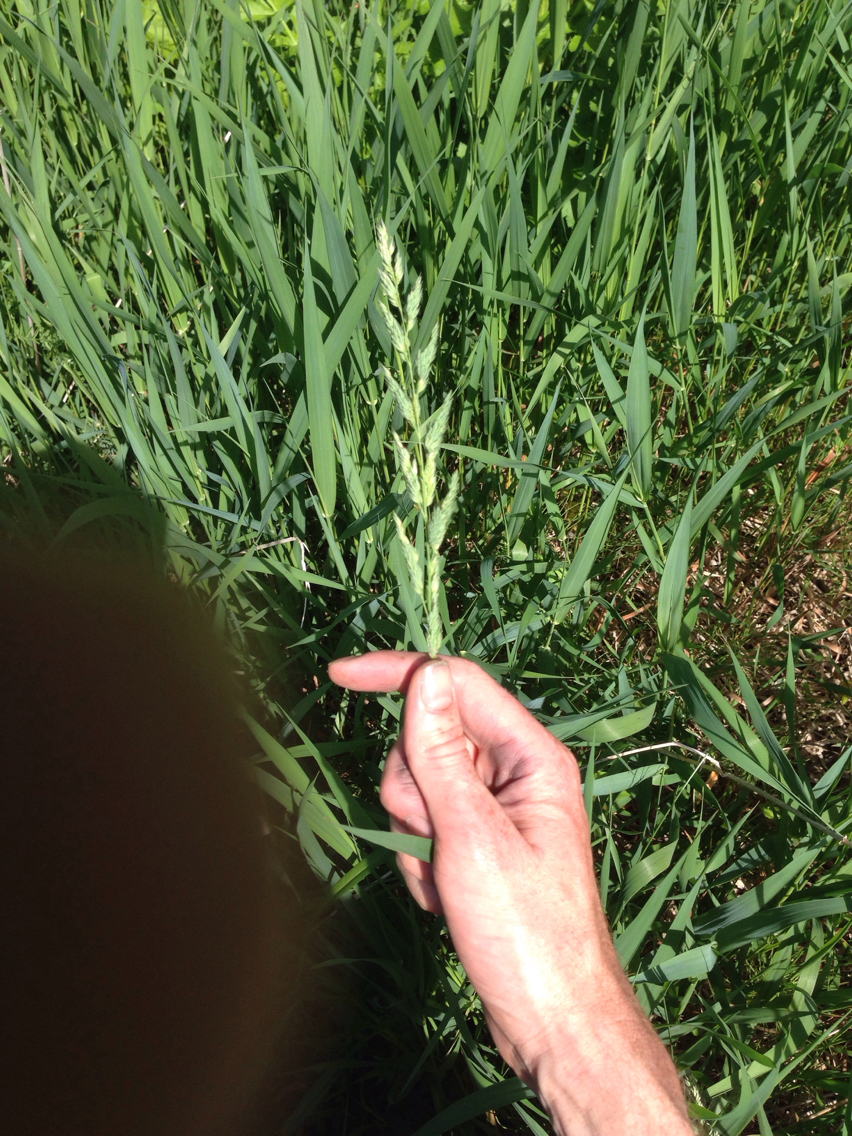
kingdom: Plantae
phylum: Tracheophyta
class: Liliopsida
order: Poales
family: Poaceae
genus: Phalaris
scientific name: Phalaris arundinacea
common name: Reed canary-grass
